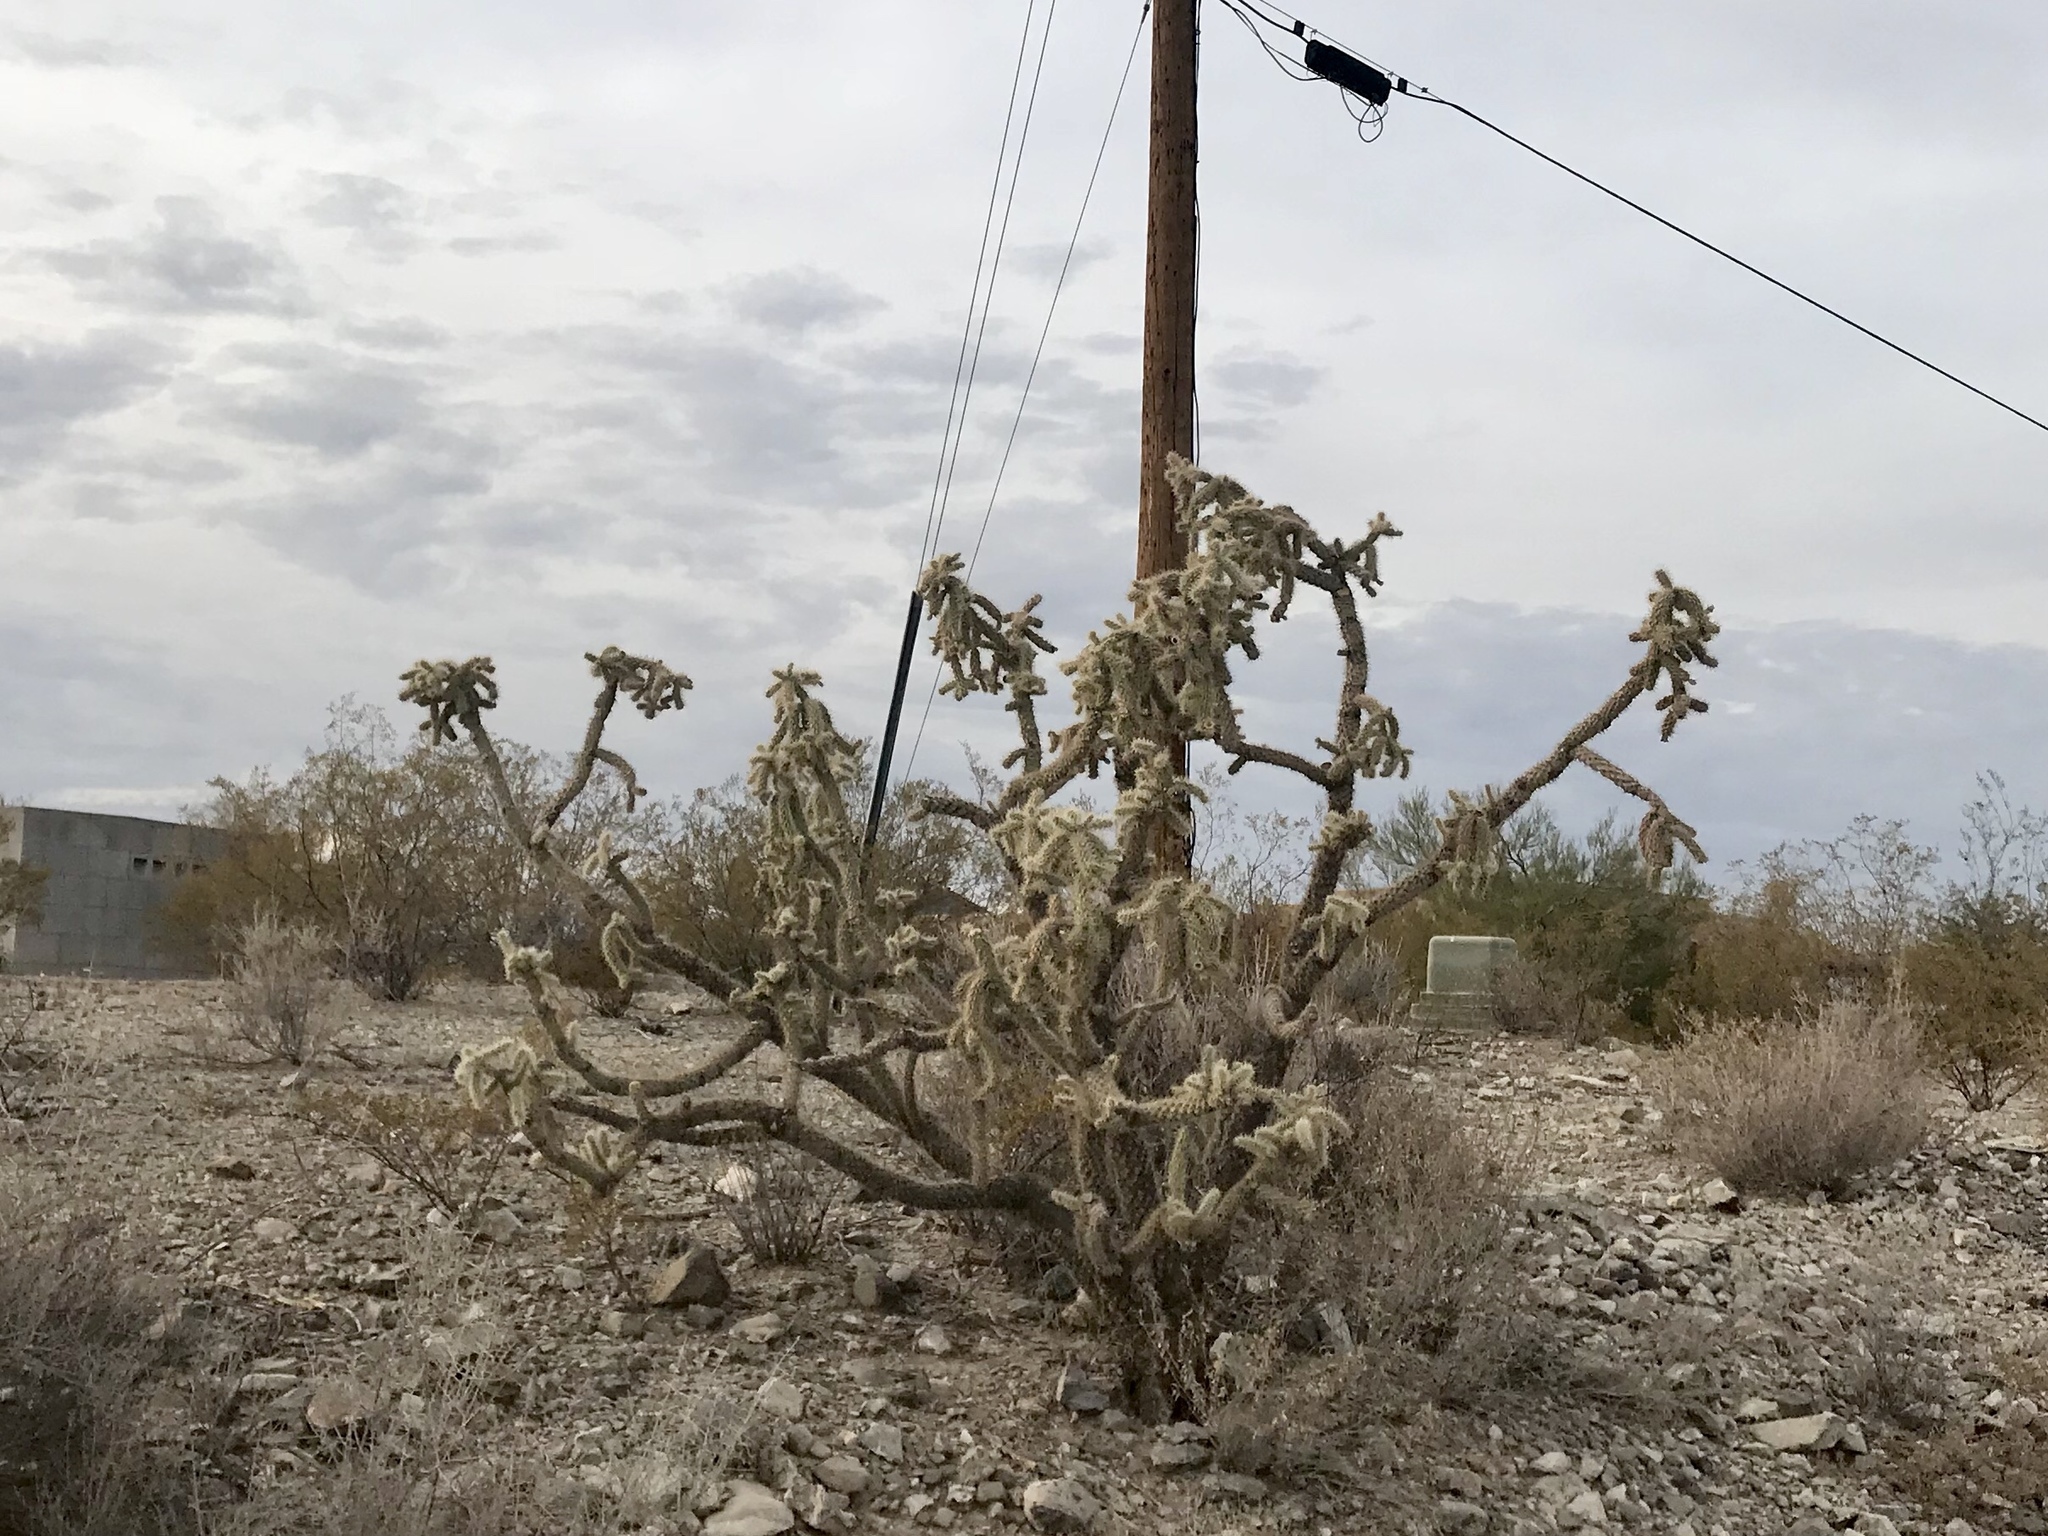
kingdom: Plantae
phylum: Tracheophyta
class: Magnoliopsida
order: Caryophyllales
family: Cactaceae
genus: Cylindropuntia
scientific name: Cylindropuntia fulgida
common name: Jumping cholla
